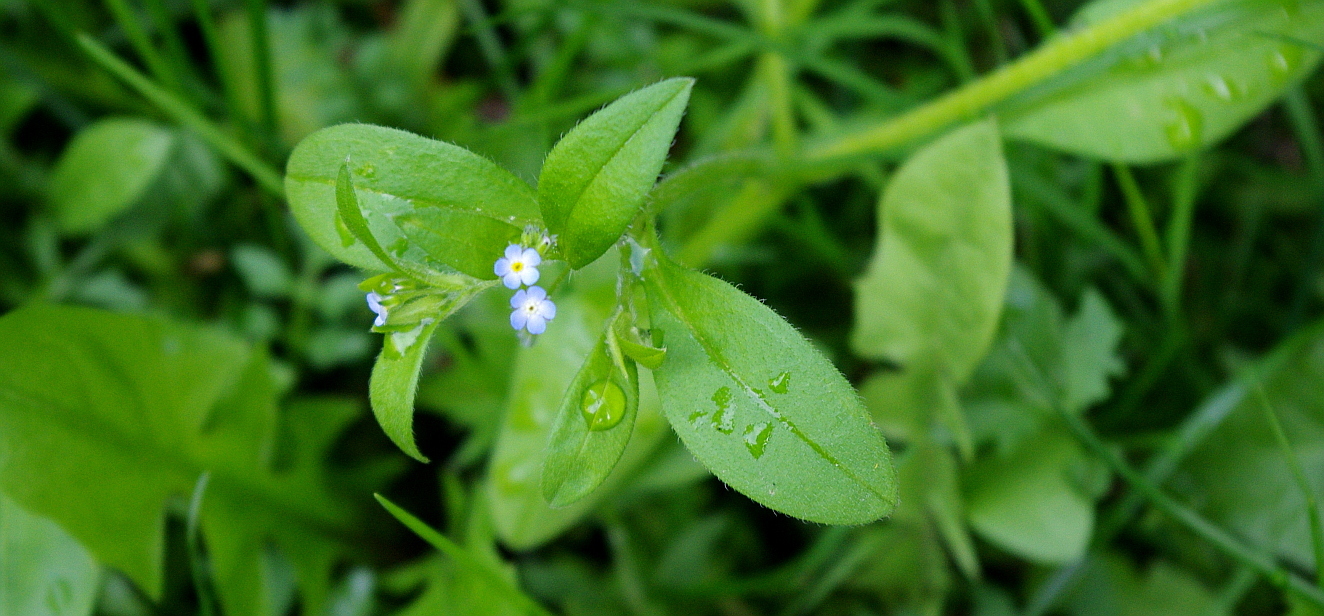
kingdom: Plantae
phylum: Tracheophyta
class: Magnoliopsida
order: Boraginales
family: Boraginaceae
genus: Myosotis
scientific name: Myosotis sparsiflora
